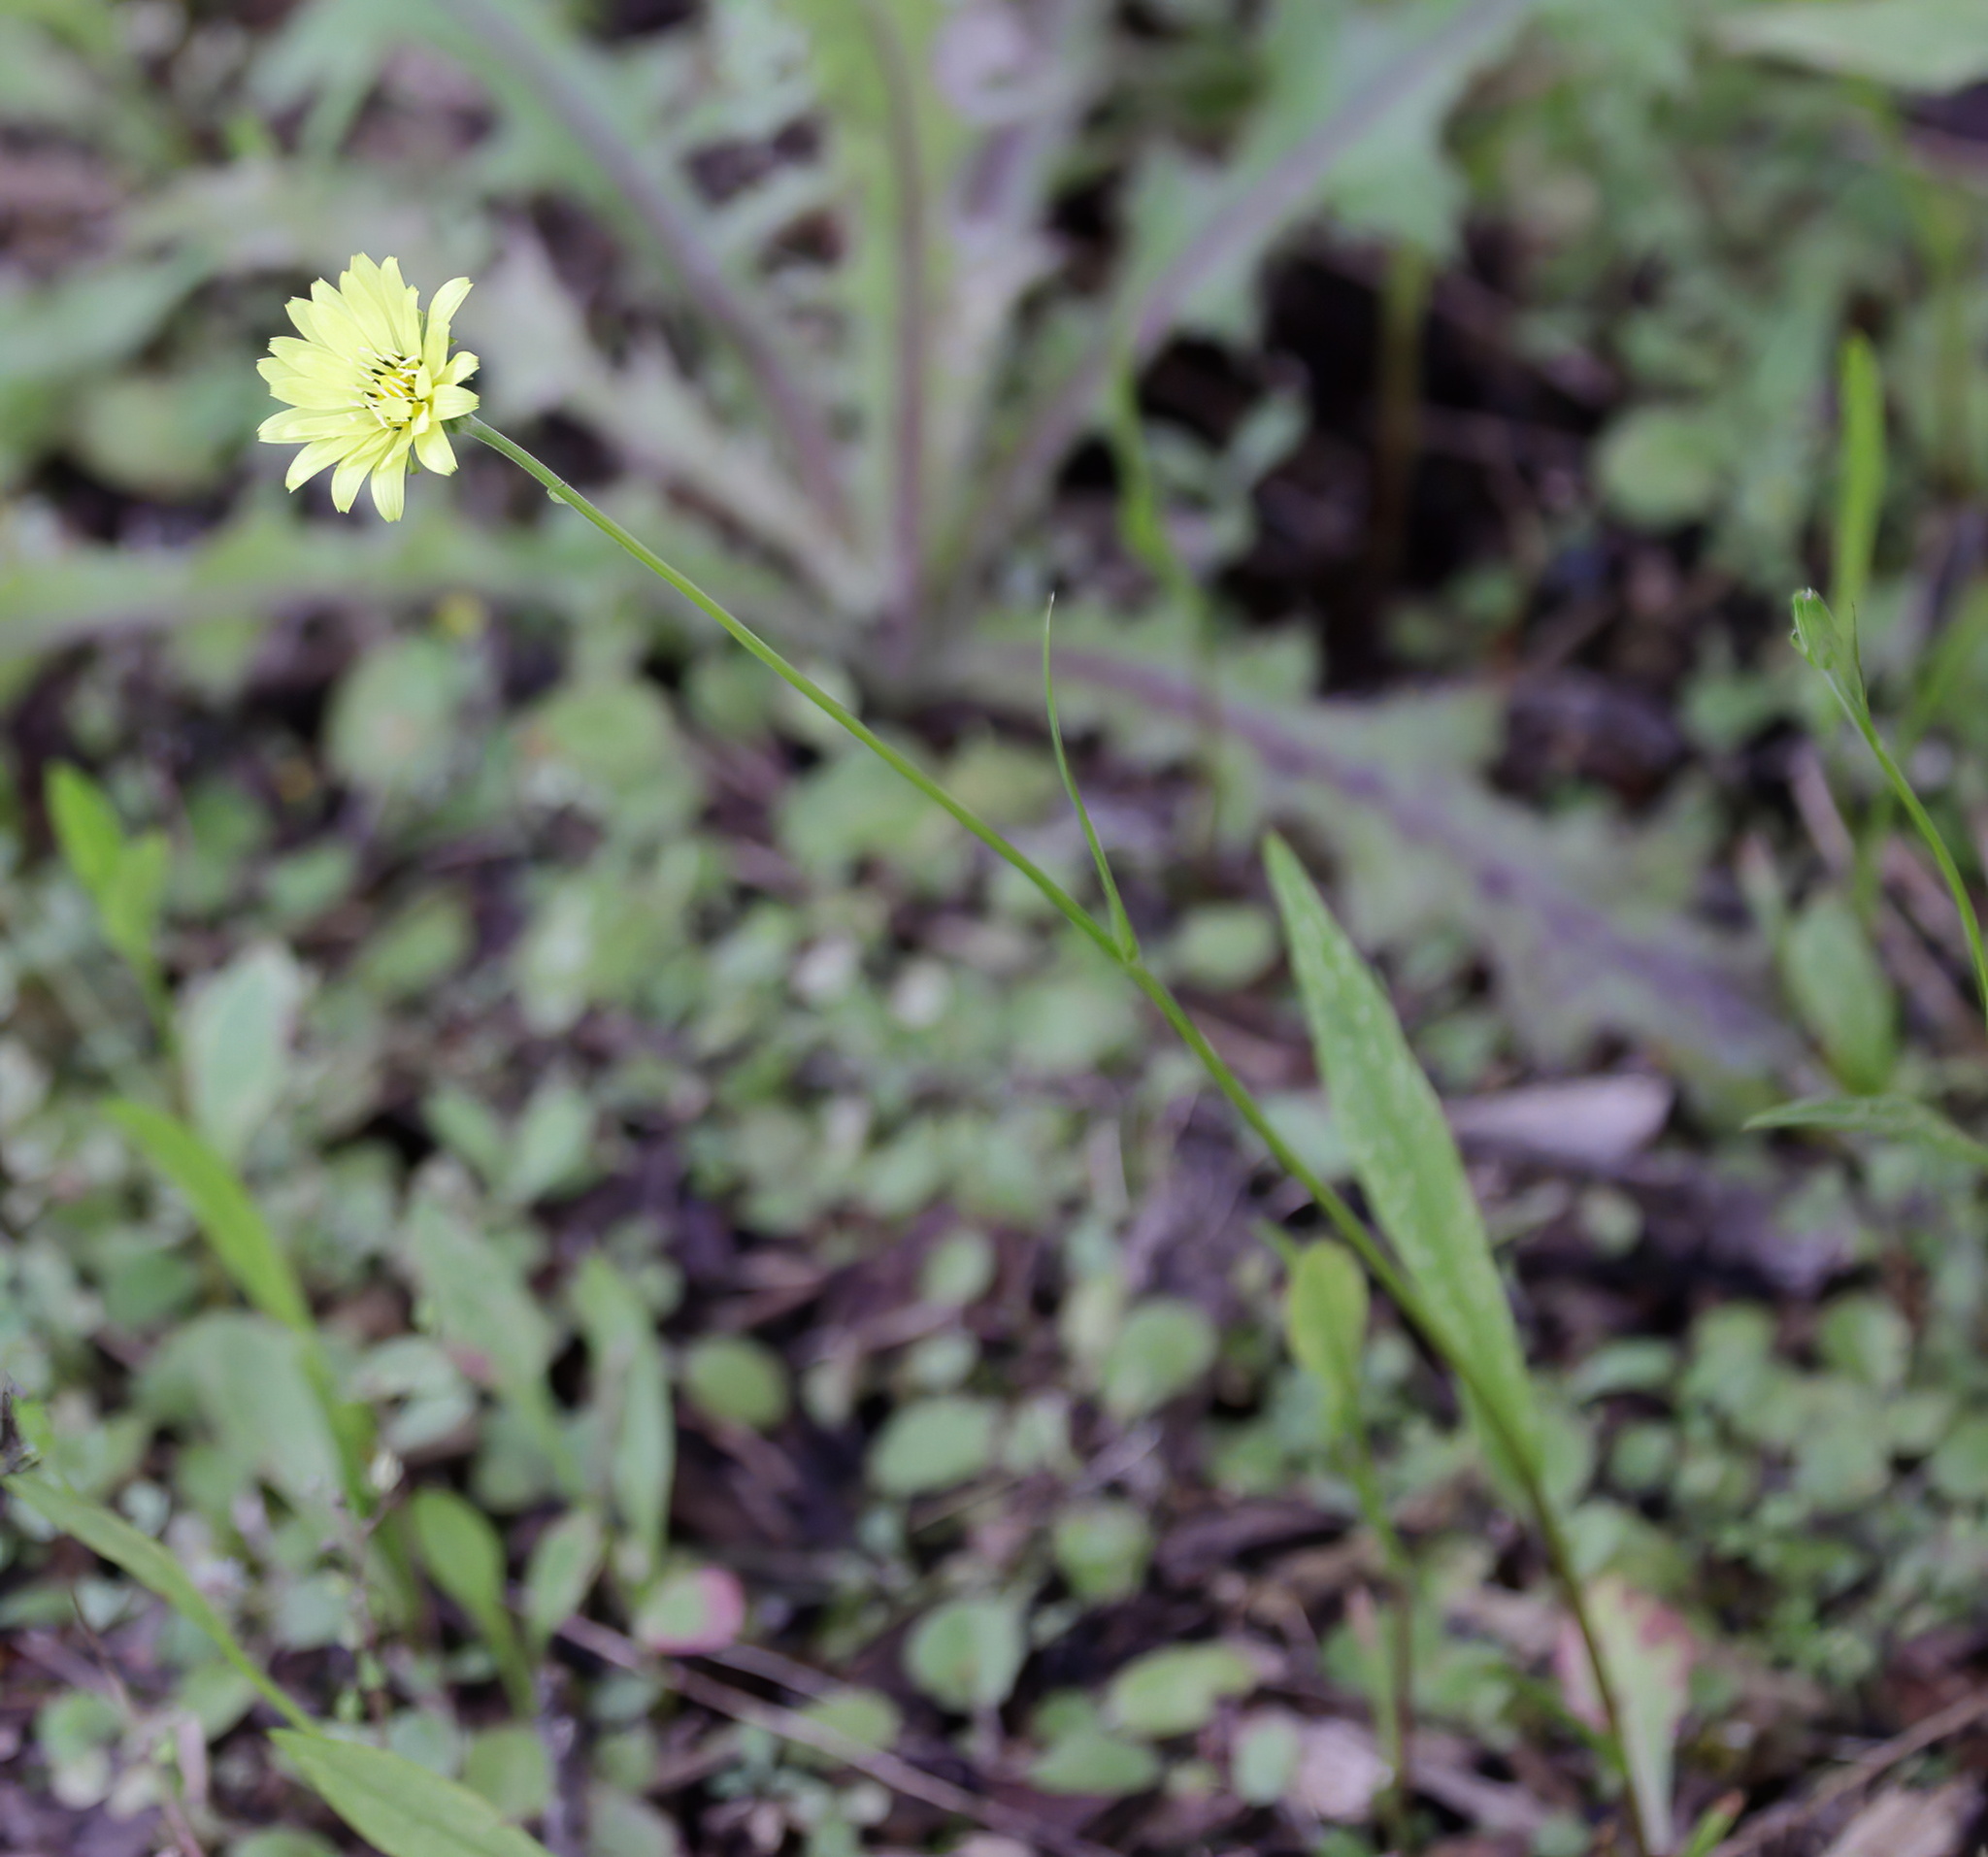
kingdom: Plantae
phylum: Tracheophyta
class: Magnoliopsida
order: Asterales
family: Asteraceae
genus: Pyrrhopappus
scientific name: Pyrrhopappus carolinianus
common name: Carolina desert-chicory
